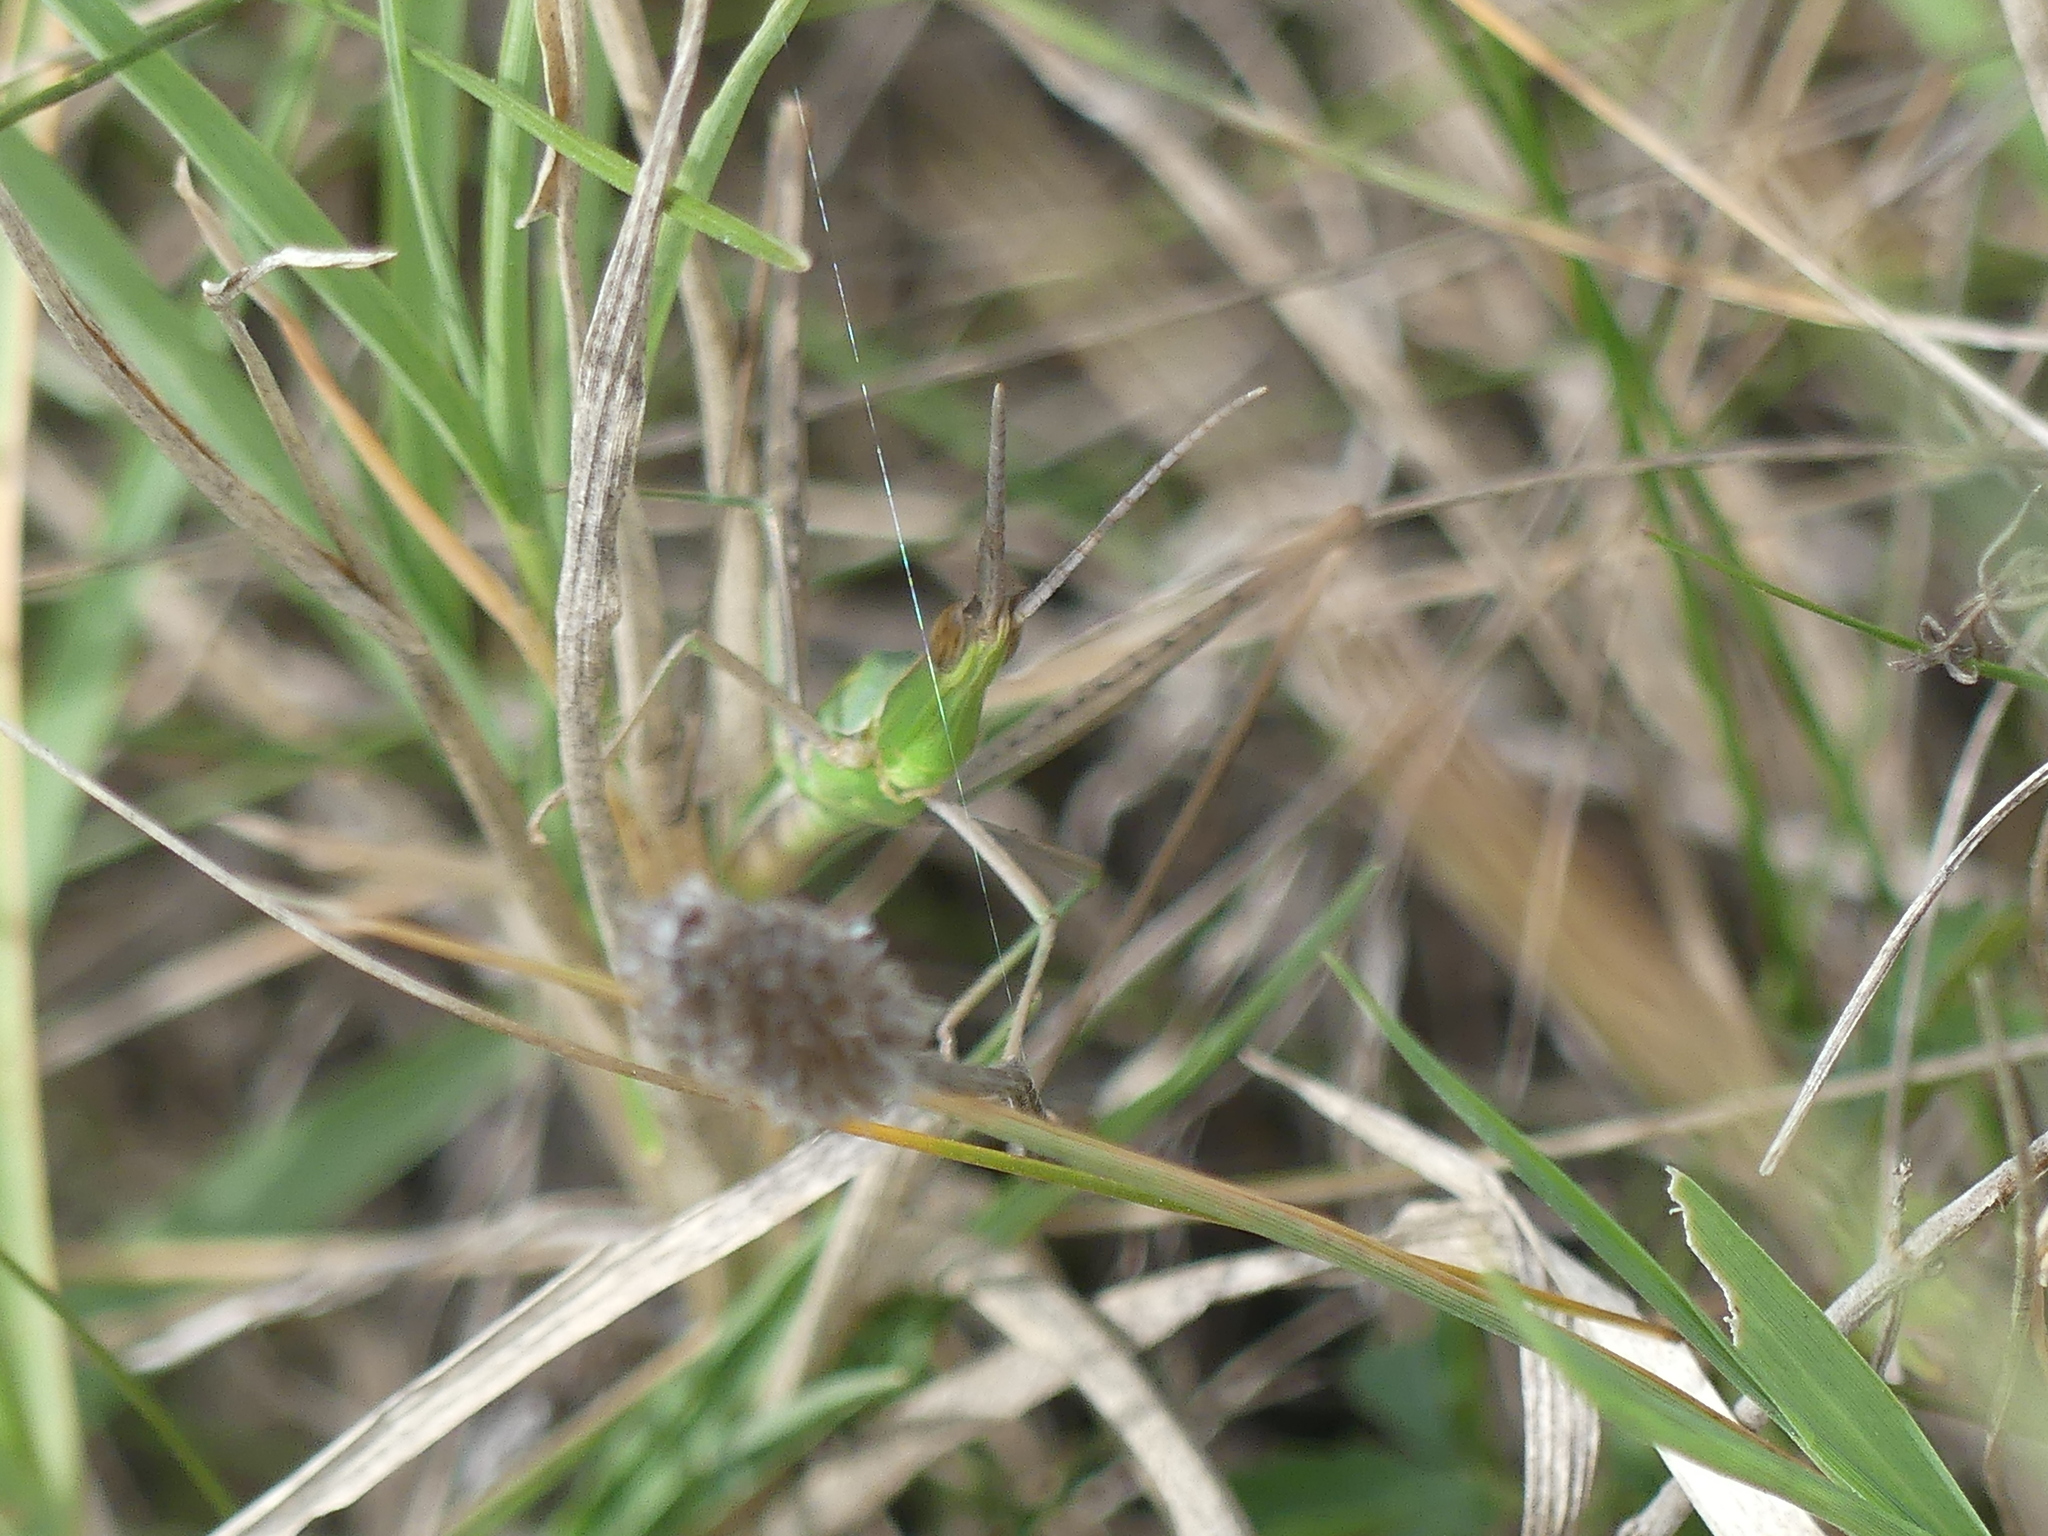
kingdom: Animalia
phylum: Arthropoda
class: Insecta
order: Orthoptera
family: Acrididae
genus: Acrida
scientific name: Acrida ungarica
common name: Common cone-headed grasshopper
